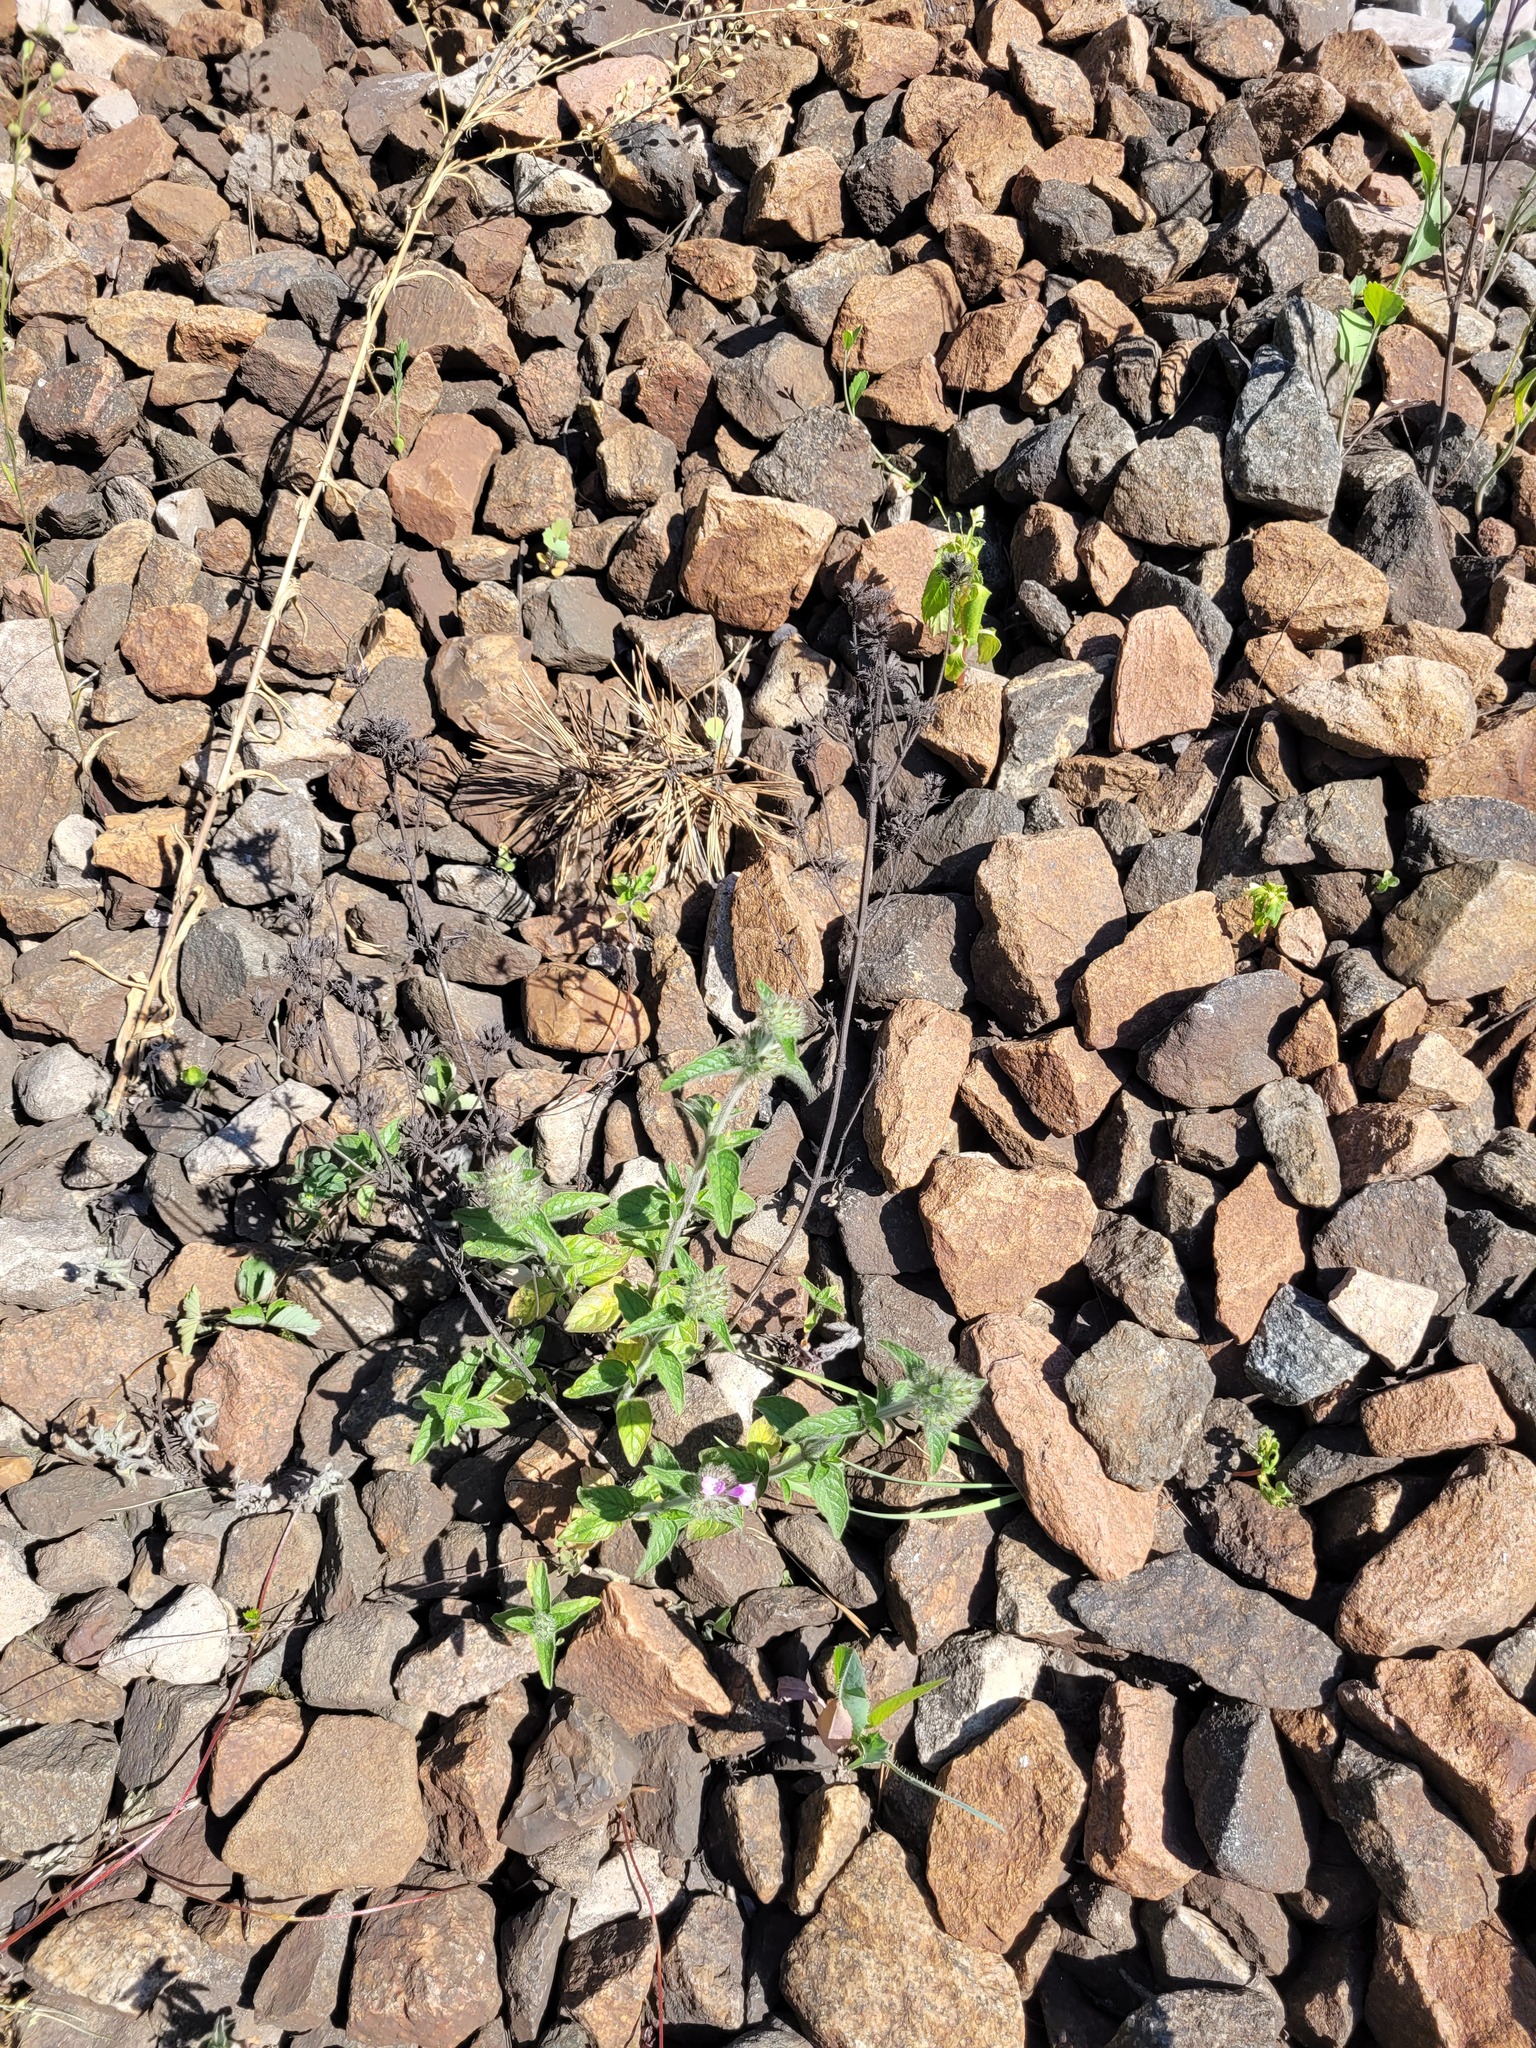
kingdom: Plantae
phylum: Tracheophyta
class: Magnoliopsida
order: Lamiales
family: Lamiaceae
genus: Clinopodium
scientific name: Clinopodium vulgare
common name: Wild basil
